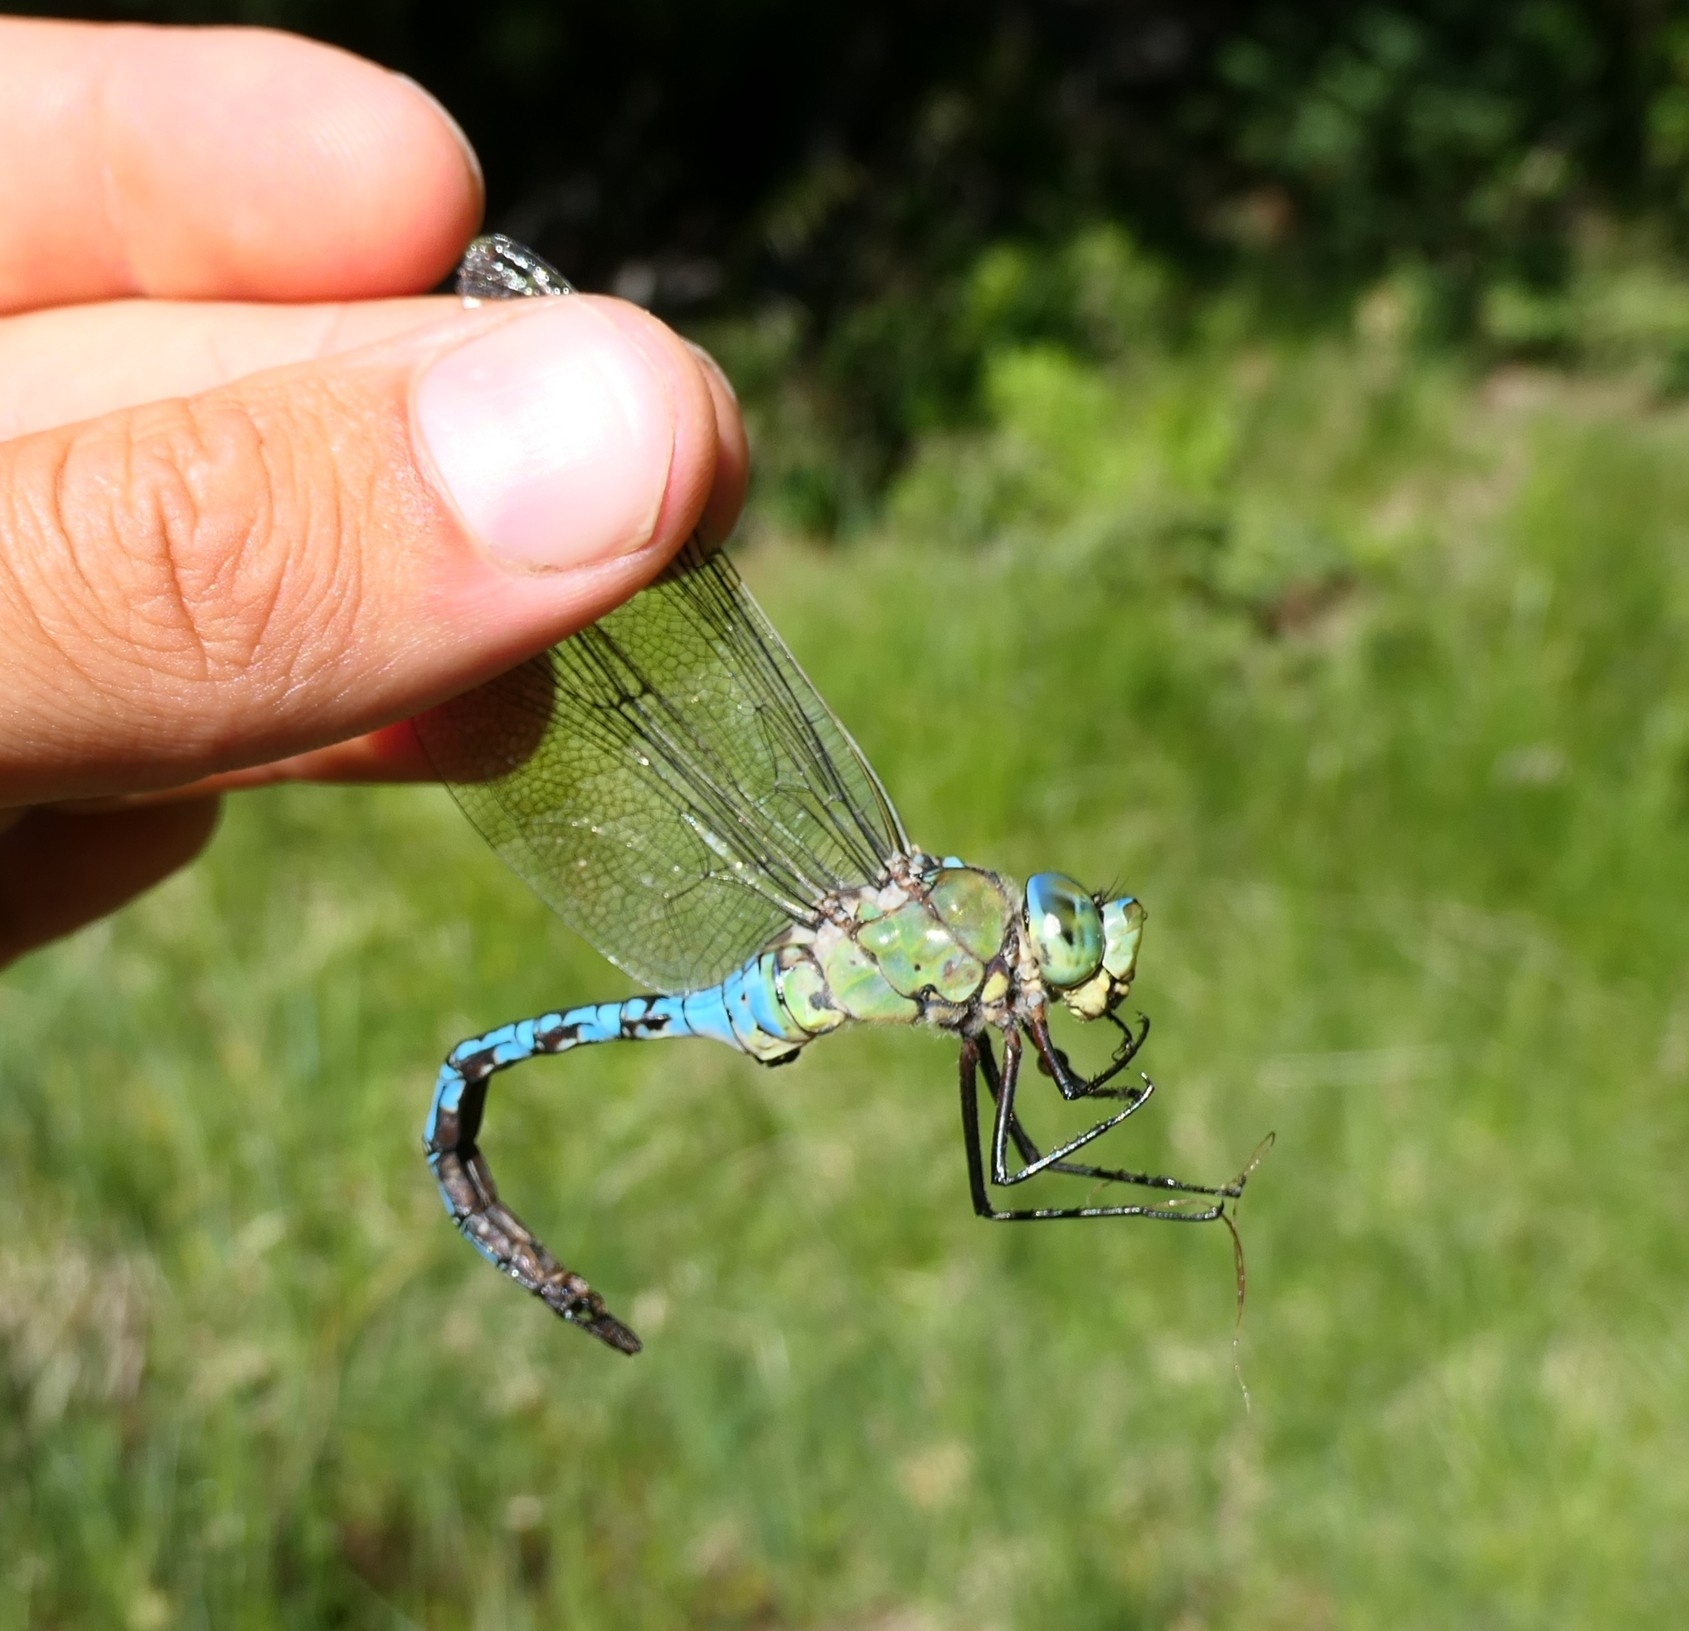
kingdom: Animalia
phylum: Arthropoda
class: Insecta
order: Odonata
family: Aeshnidae
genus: Anax
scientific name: Anax imperator
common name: Emperor dragonfly
